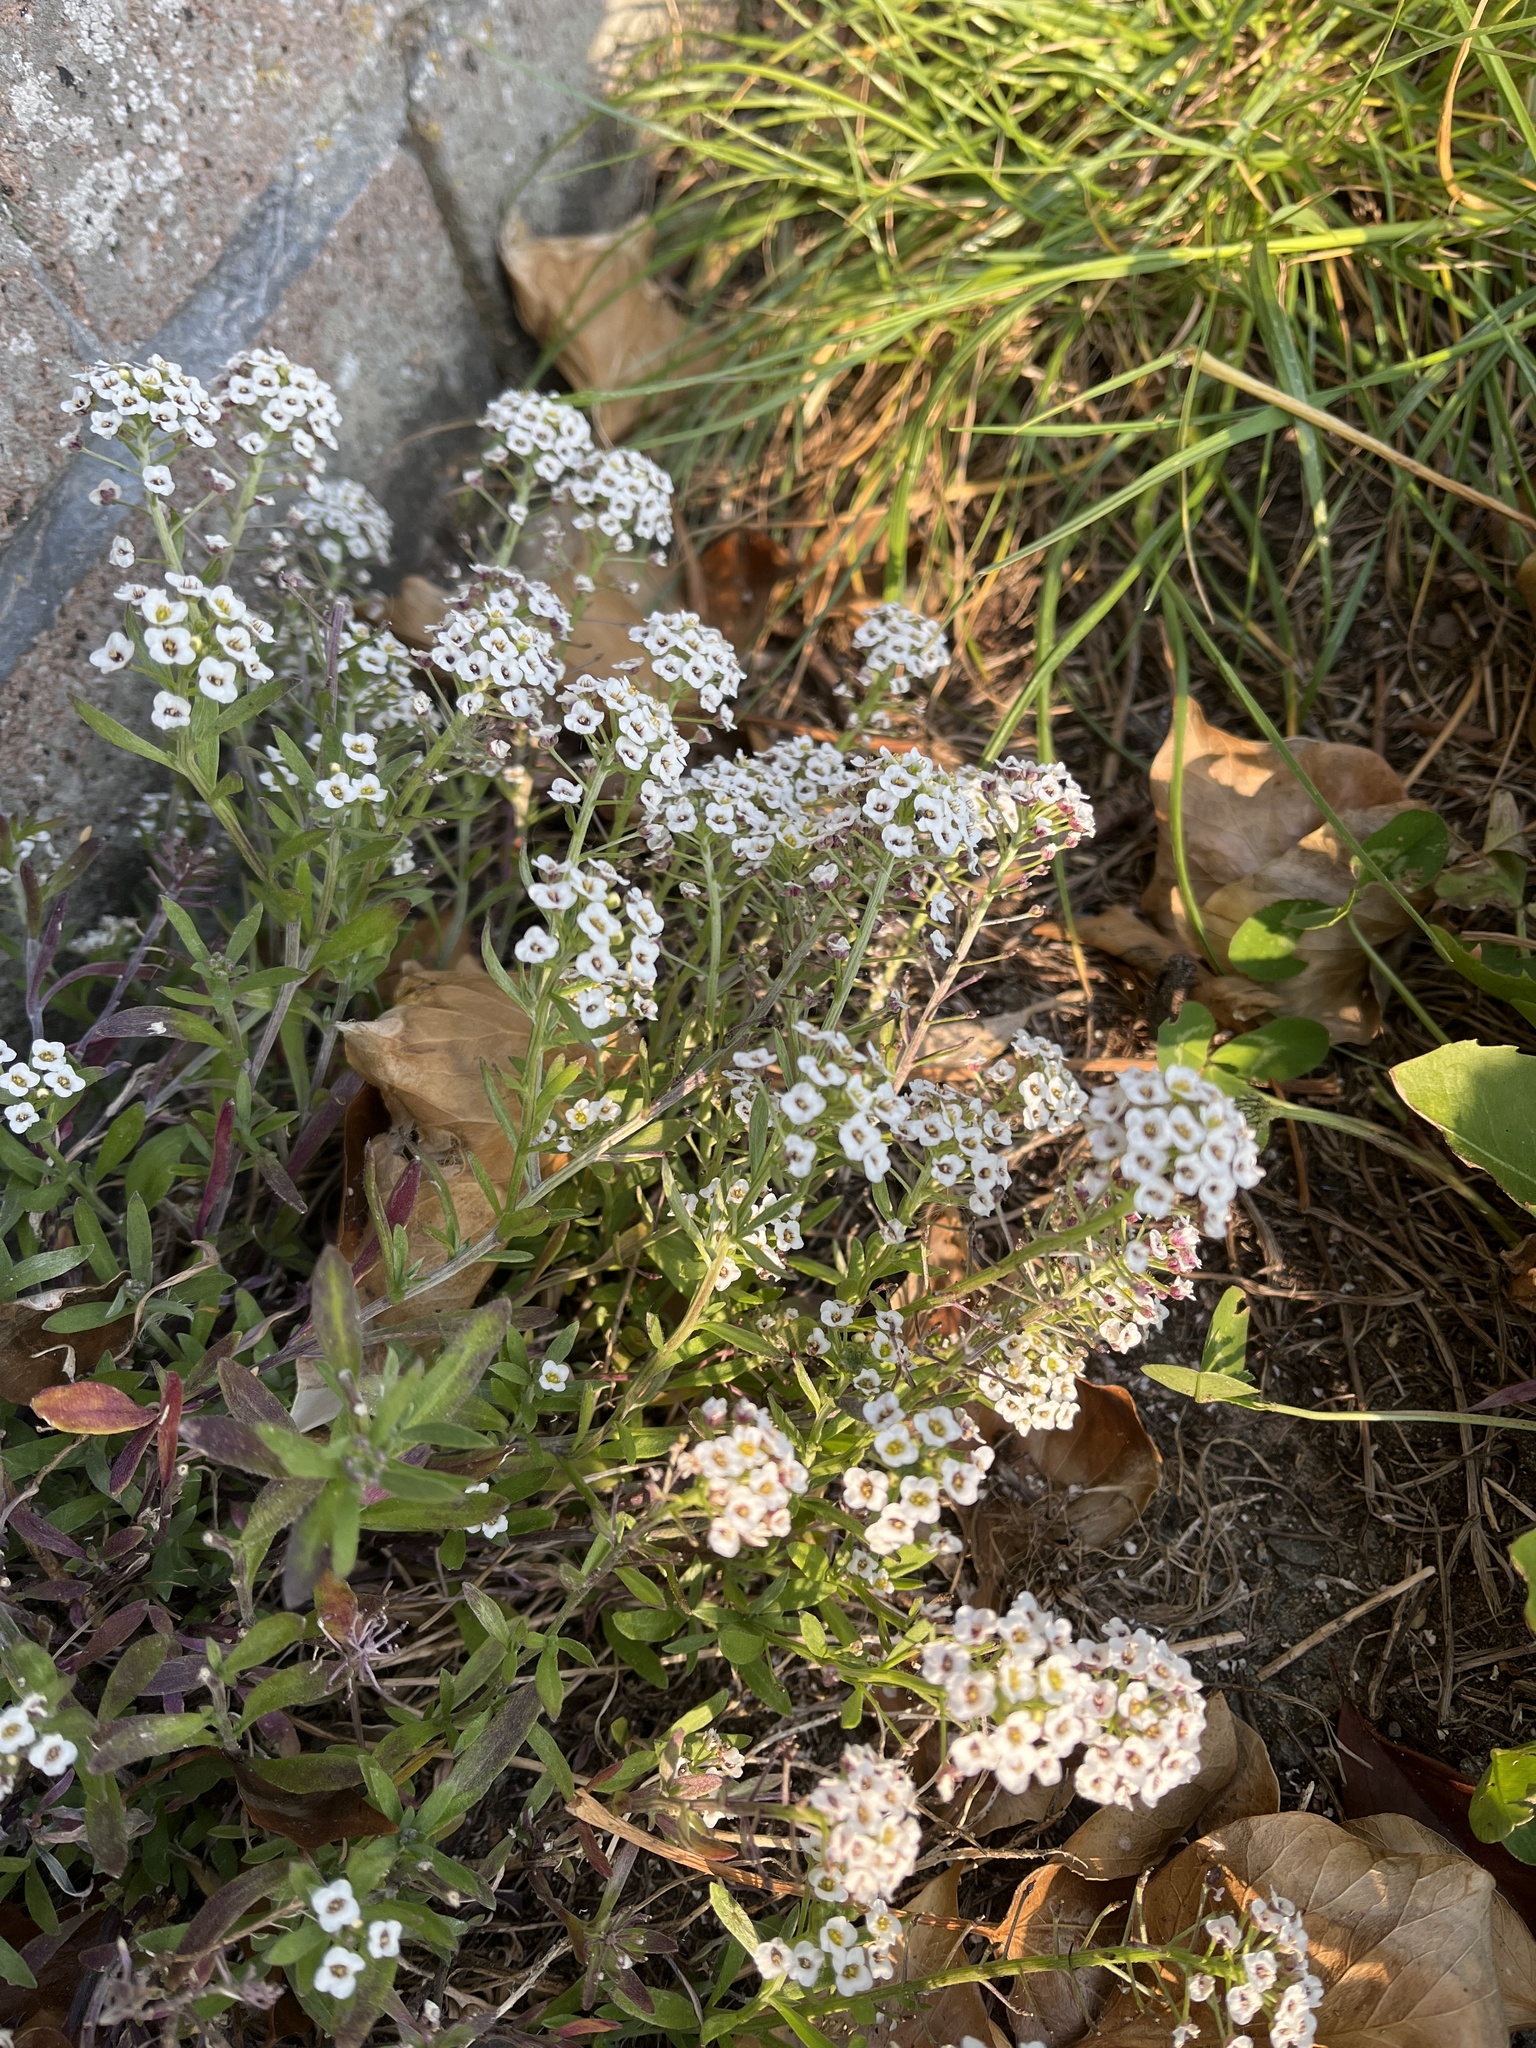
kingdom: Plantae
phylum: Tracheophyta
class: Magnoliopsida
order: Brassicales
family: Brassicaceae
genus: Lobularia
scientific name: Lobularia maritima
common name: Sweet alison
